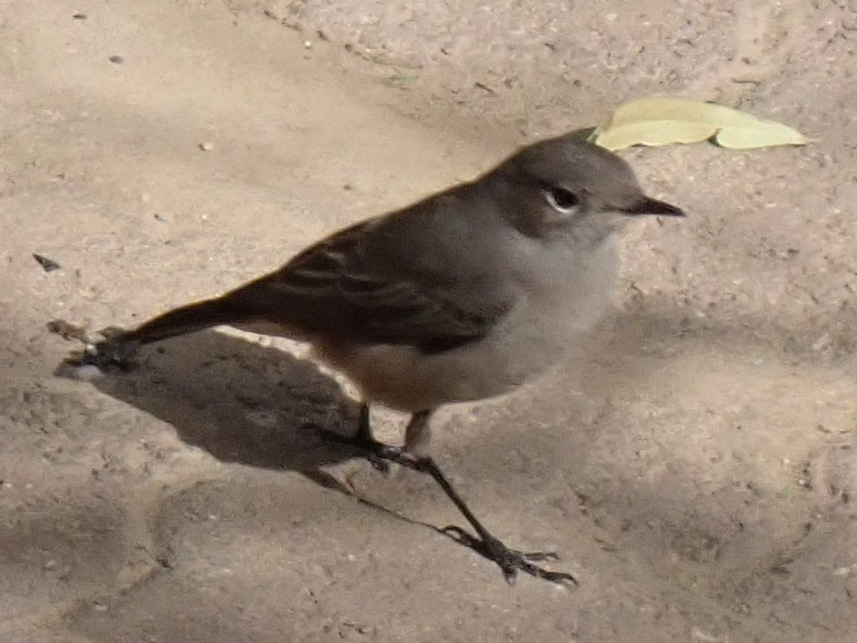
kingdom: Animalia
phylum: Chordata
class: Aves
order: Passeriformes
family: Muscicapidae
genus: Oenanthe
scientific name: Oenanthe familiaris
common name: Familiar chat
